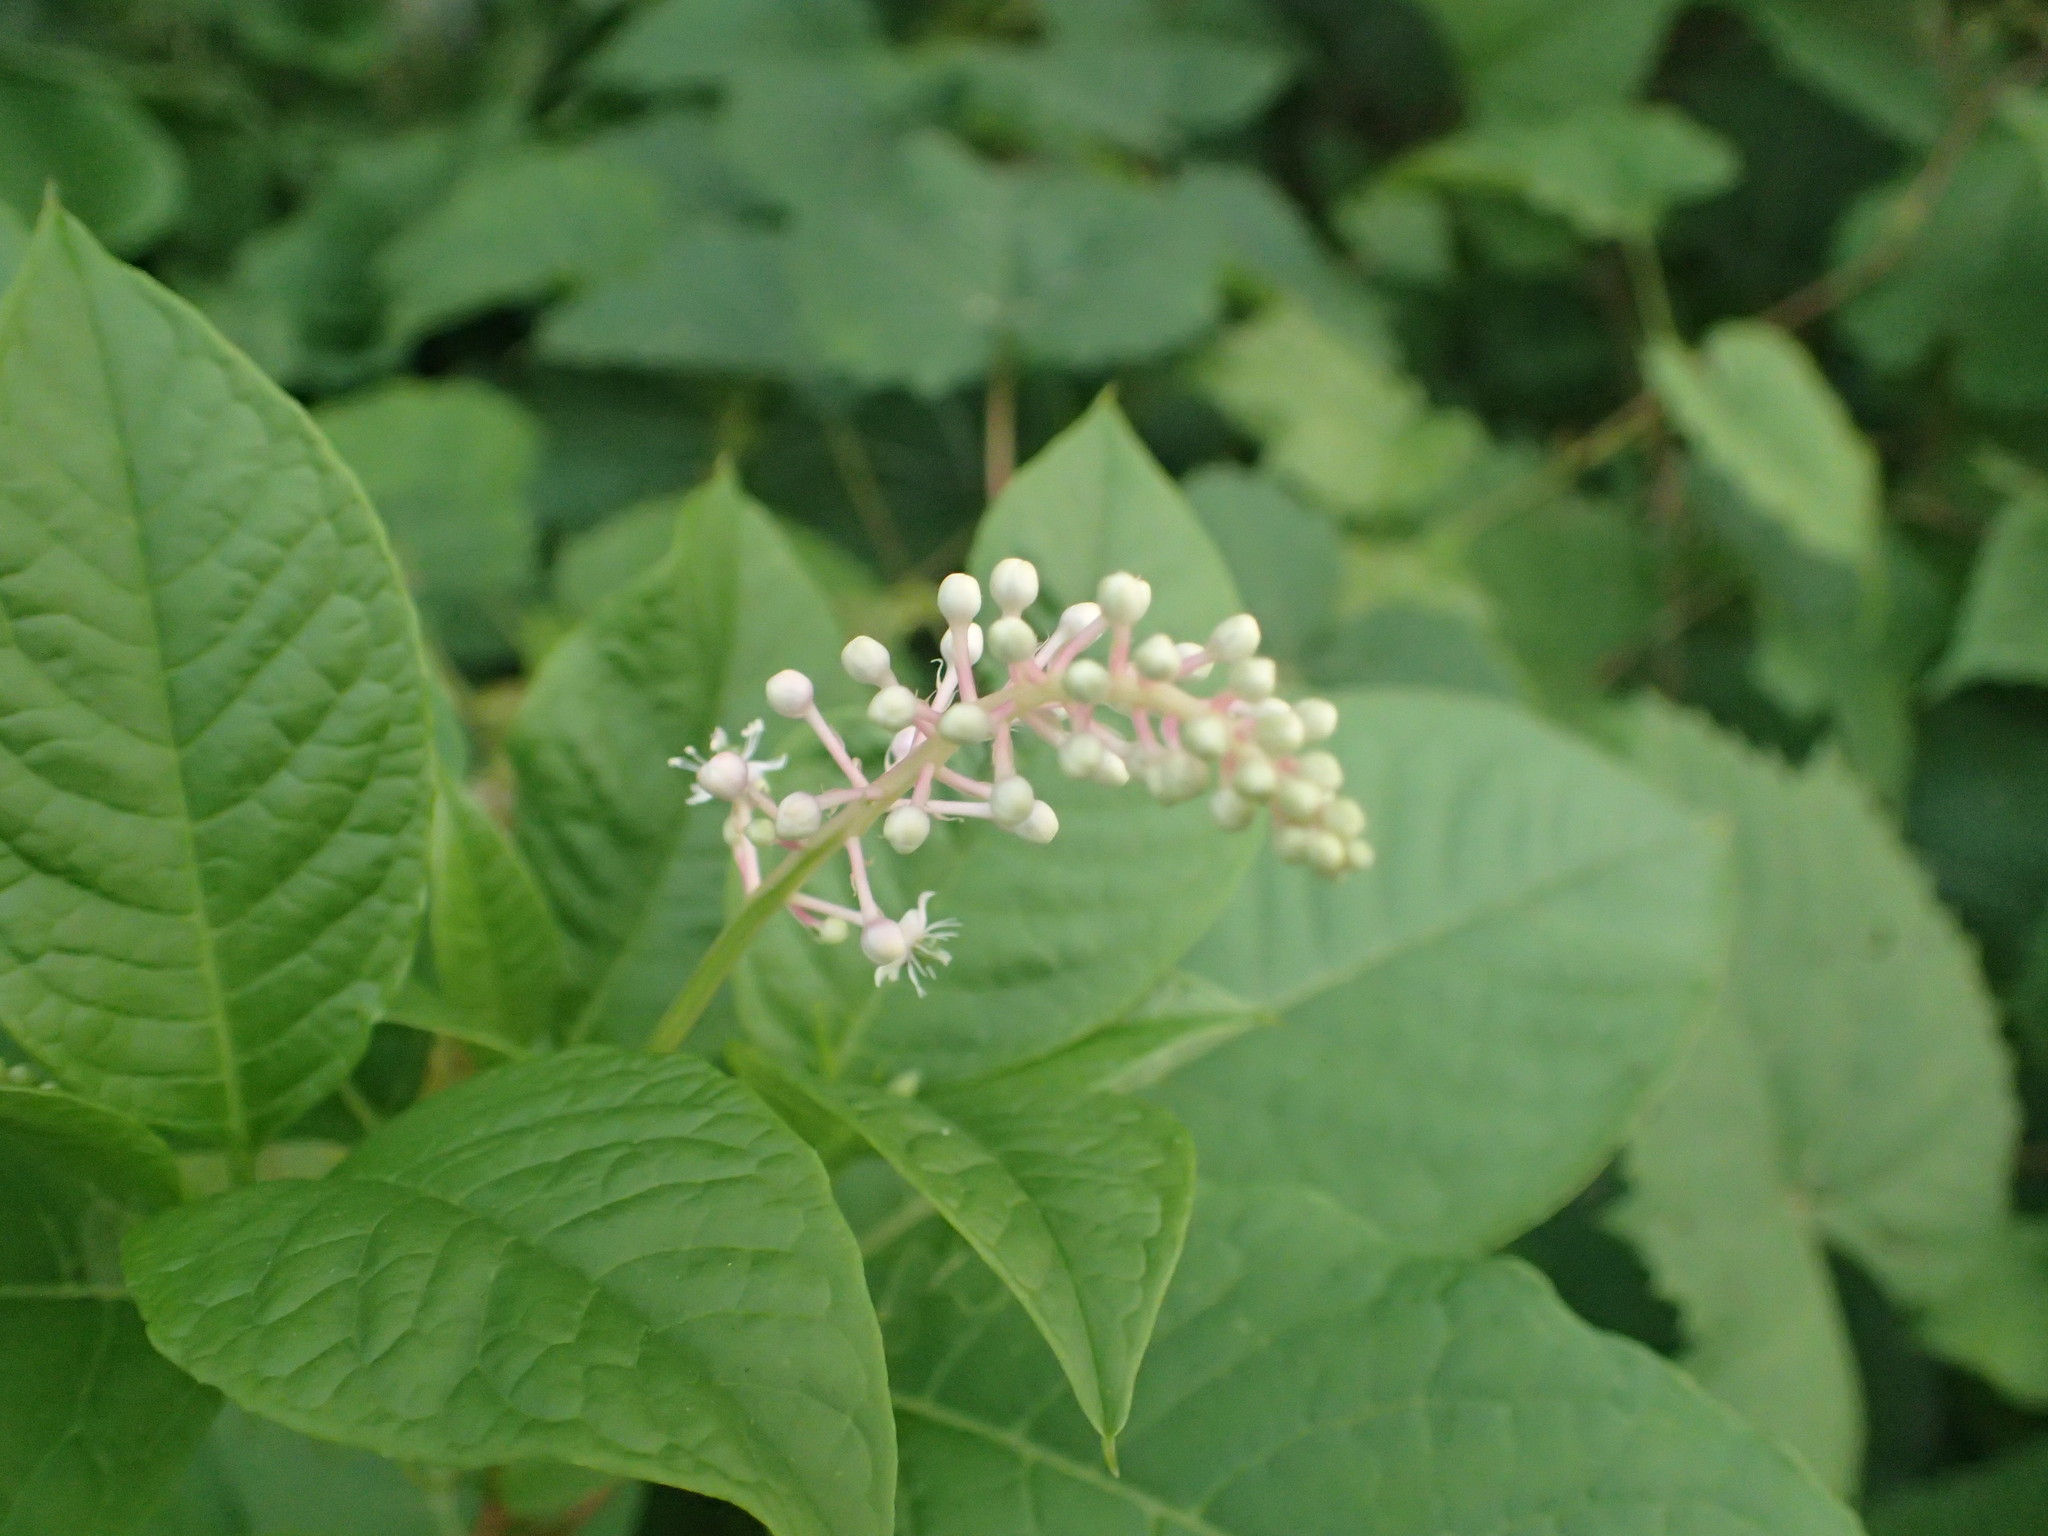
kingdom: Plantae
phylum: Tracheophyta
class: Magnoliopsida
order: Caryophyllales
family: Phytolaccaceae
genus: Phytolacca
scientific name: Phytolacca americana
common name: American pokeweed
